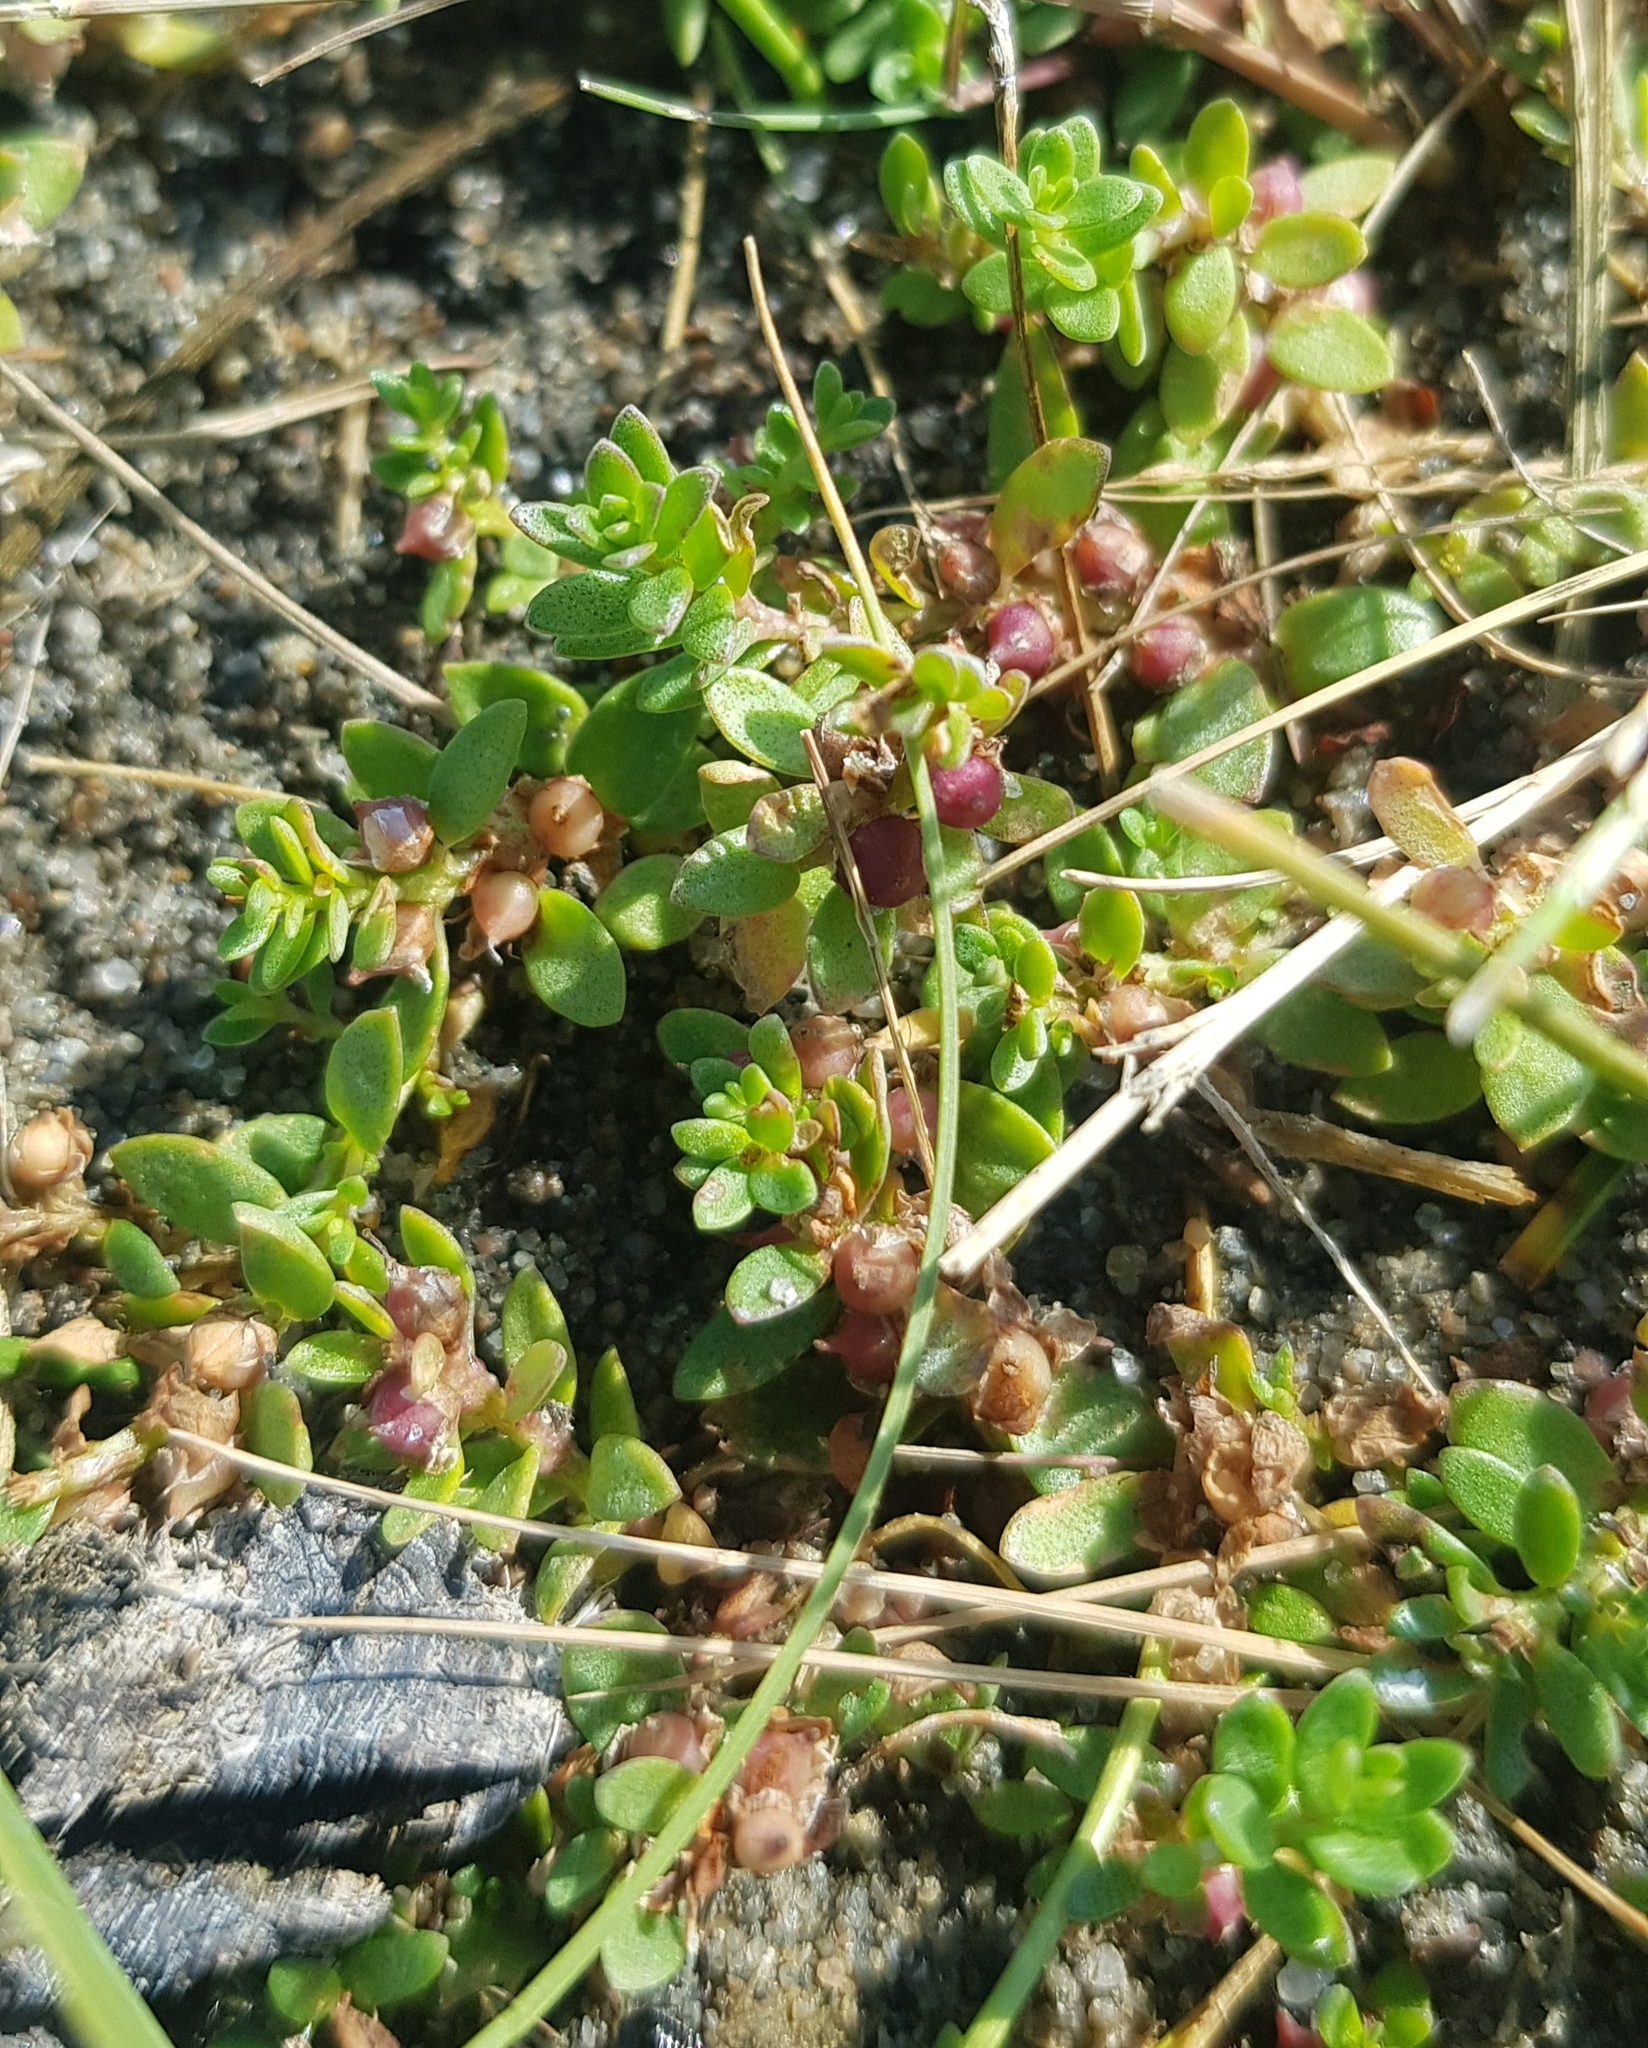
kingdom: Plantae
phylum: Tracheophyta
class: Magnoliopsida
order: Ericales
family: Primulaceae
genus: Lysimachia
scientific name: Lysimachia maritima
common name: Sea milkwort
